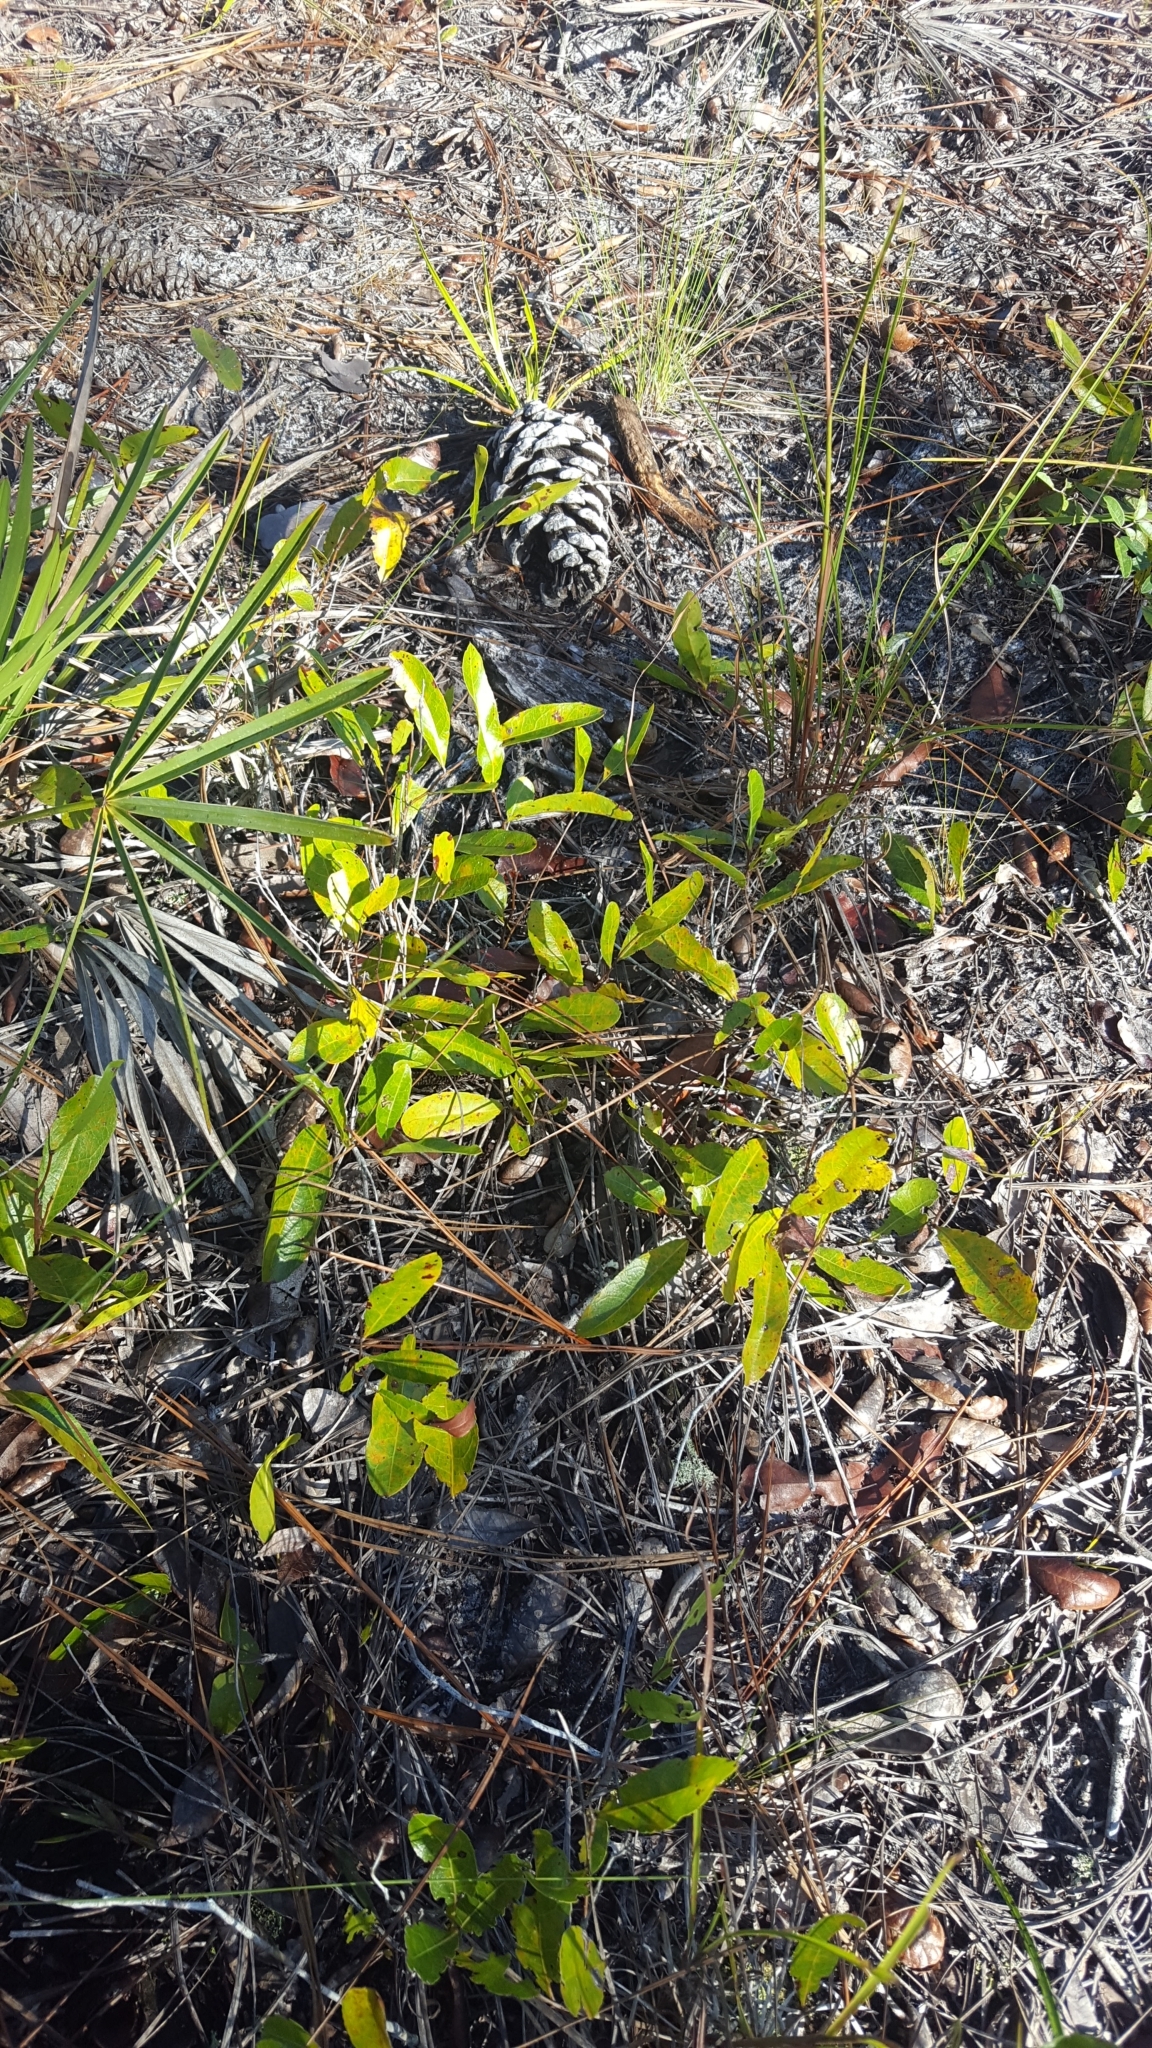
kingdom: Plantae
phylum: Tracheophyta
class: Magnoliopsida
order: Malpighiales
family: Chrysobalanaceae
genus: Geobalanus
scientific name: Geobalanus oblongifolius
